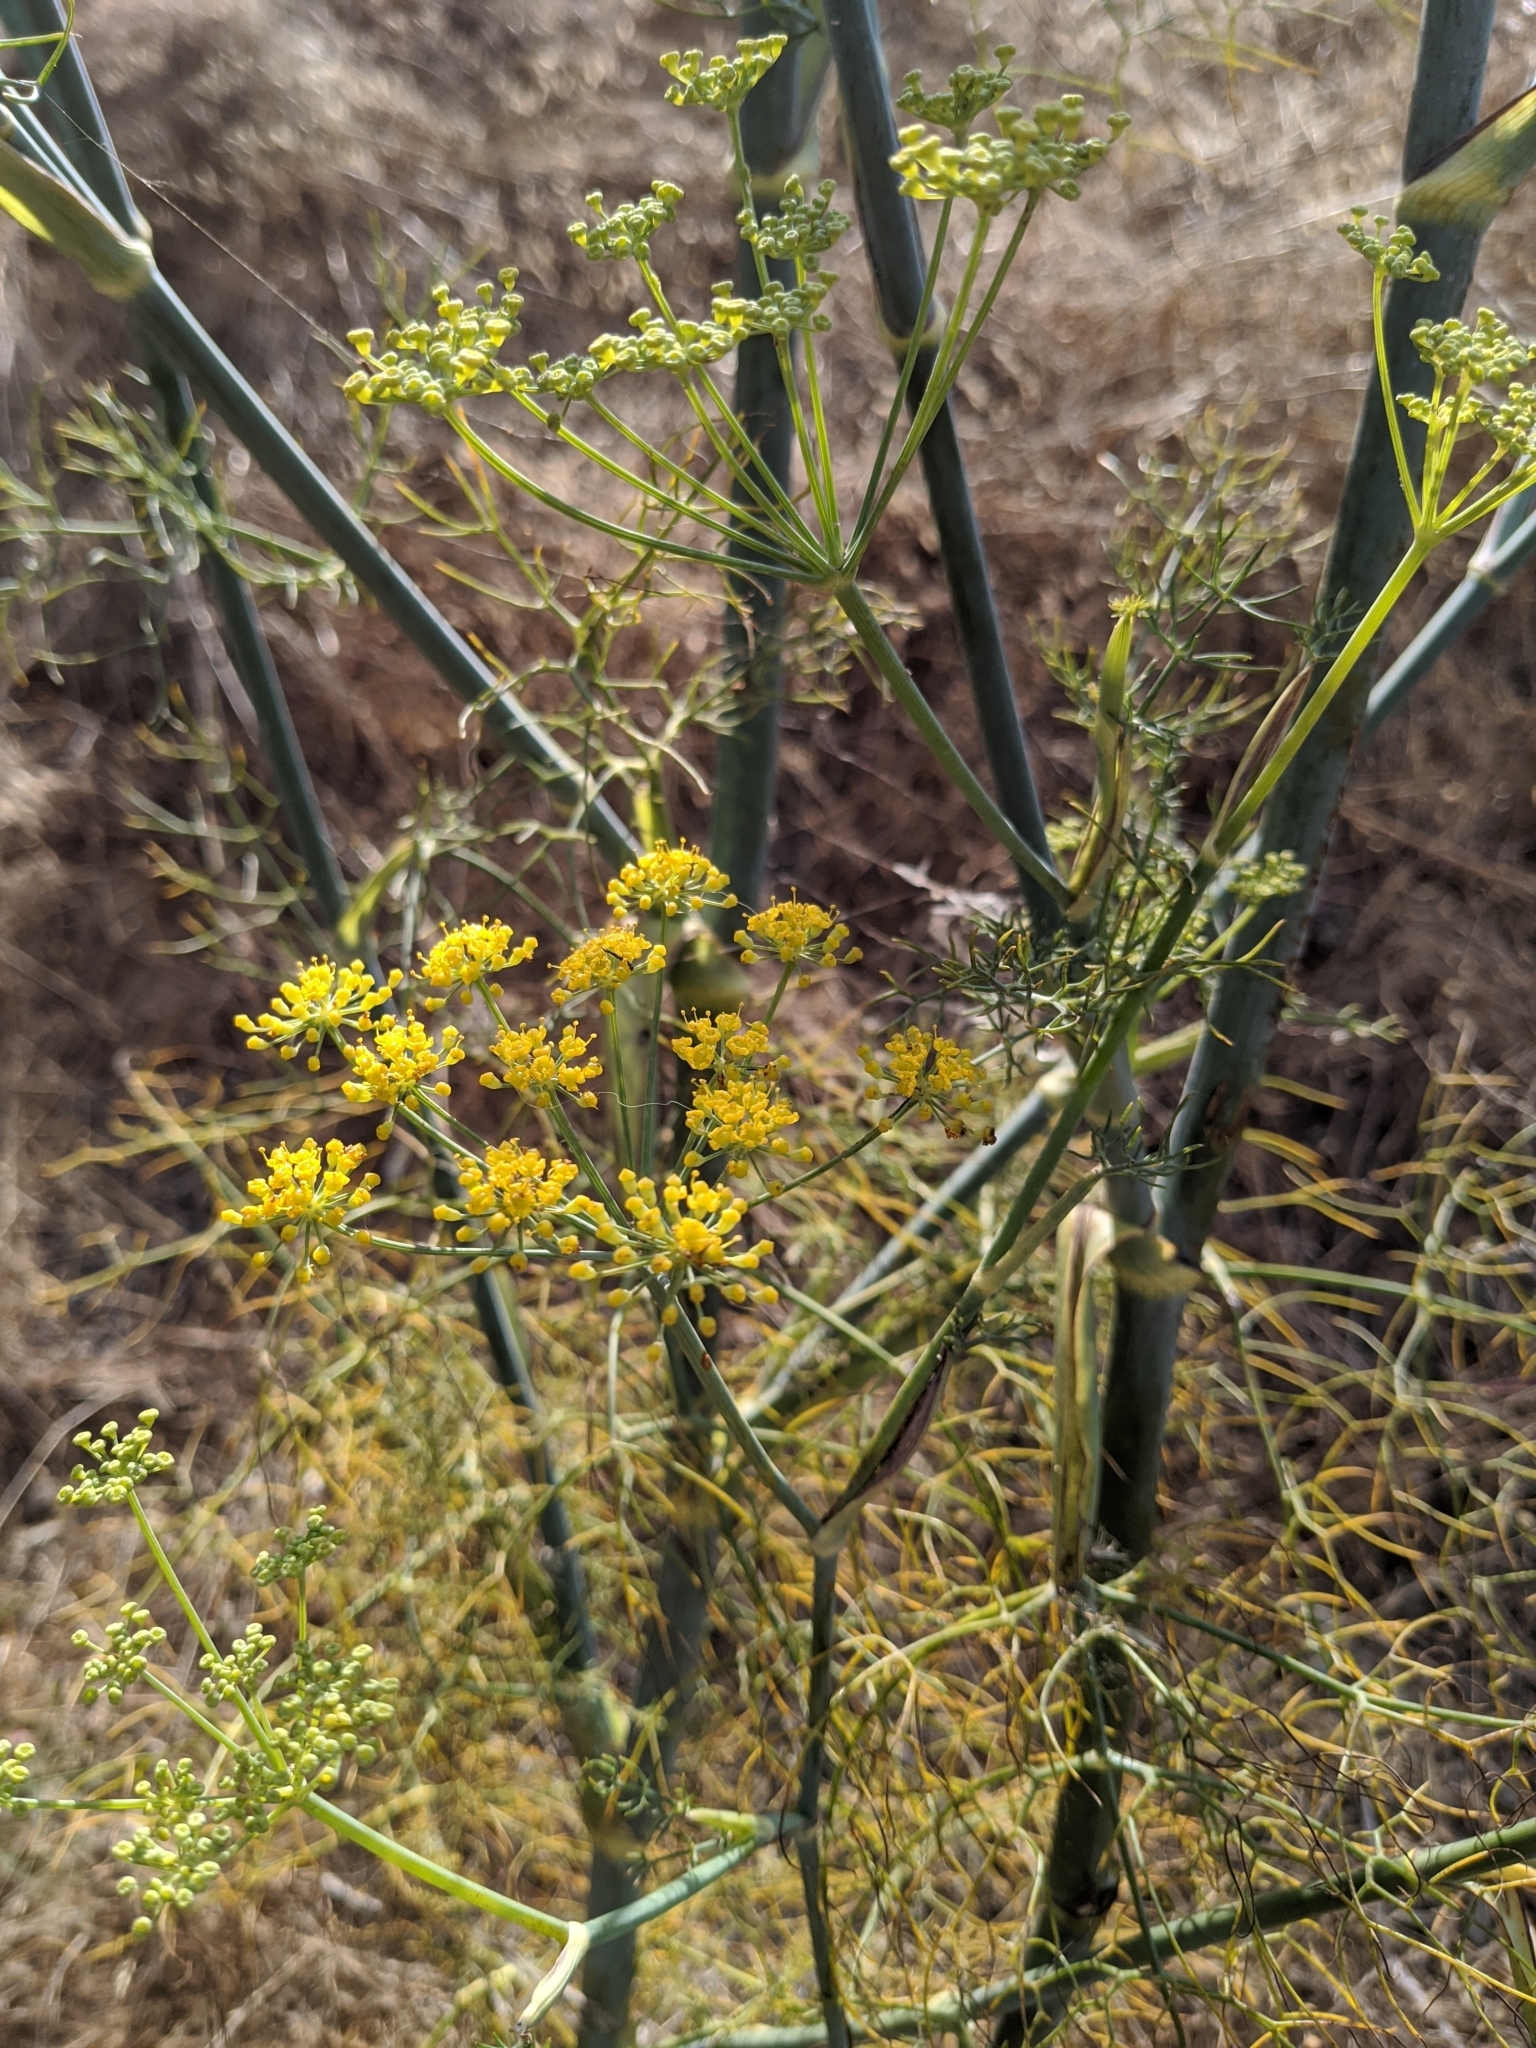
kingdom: Plantae
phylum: Tracheophyta
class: Magnoliopsida
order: Apiales
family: Apiaceae
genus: Foeniculum
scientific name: Foeniculum vulgare
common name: Fennel
